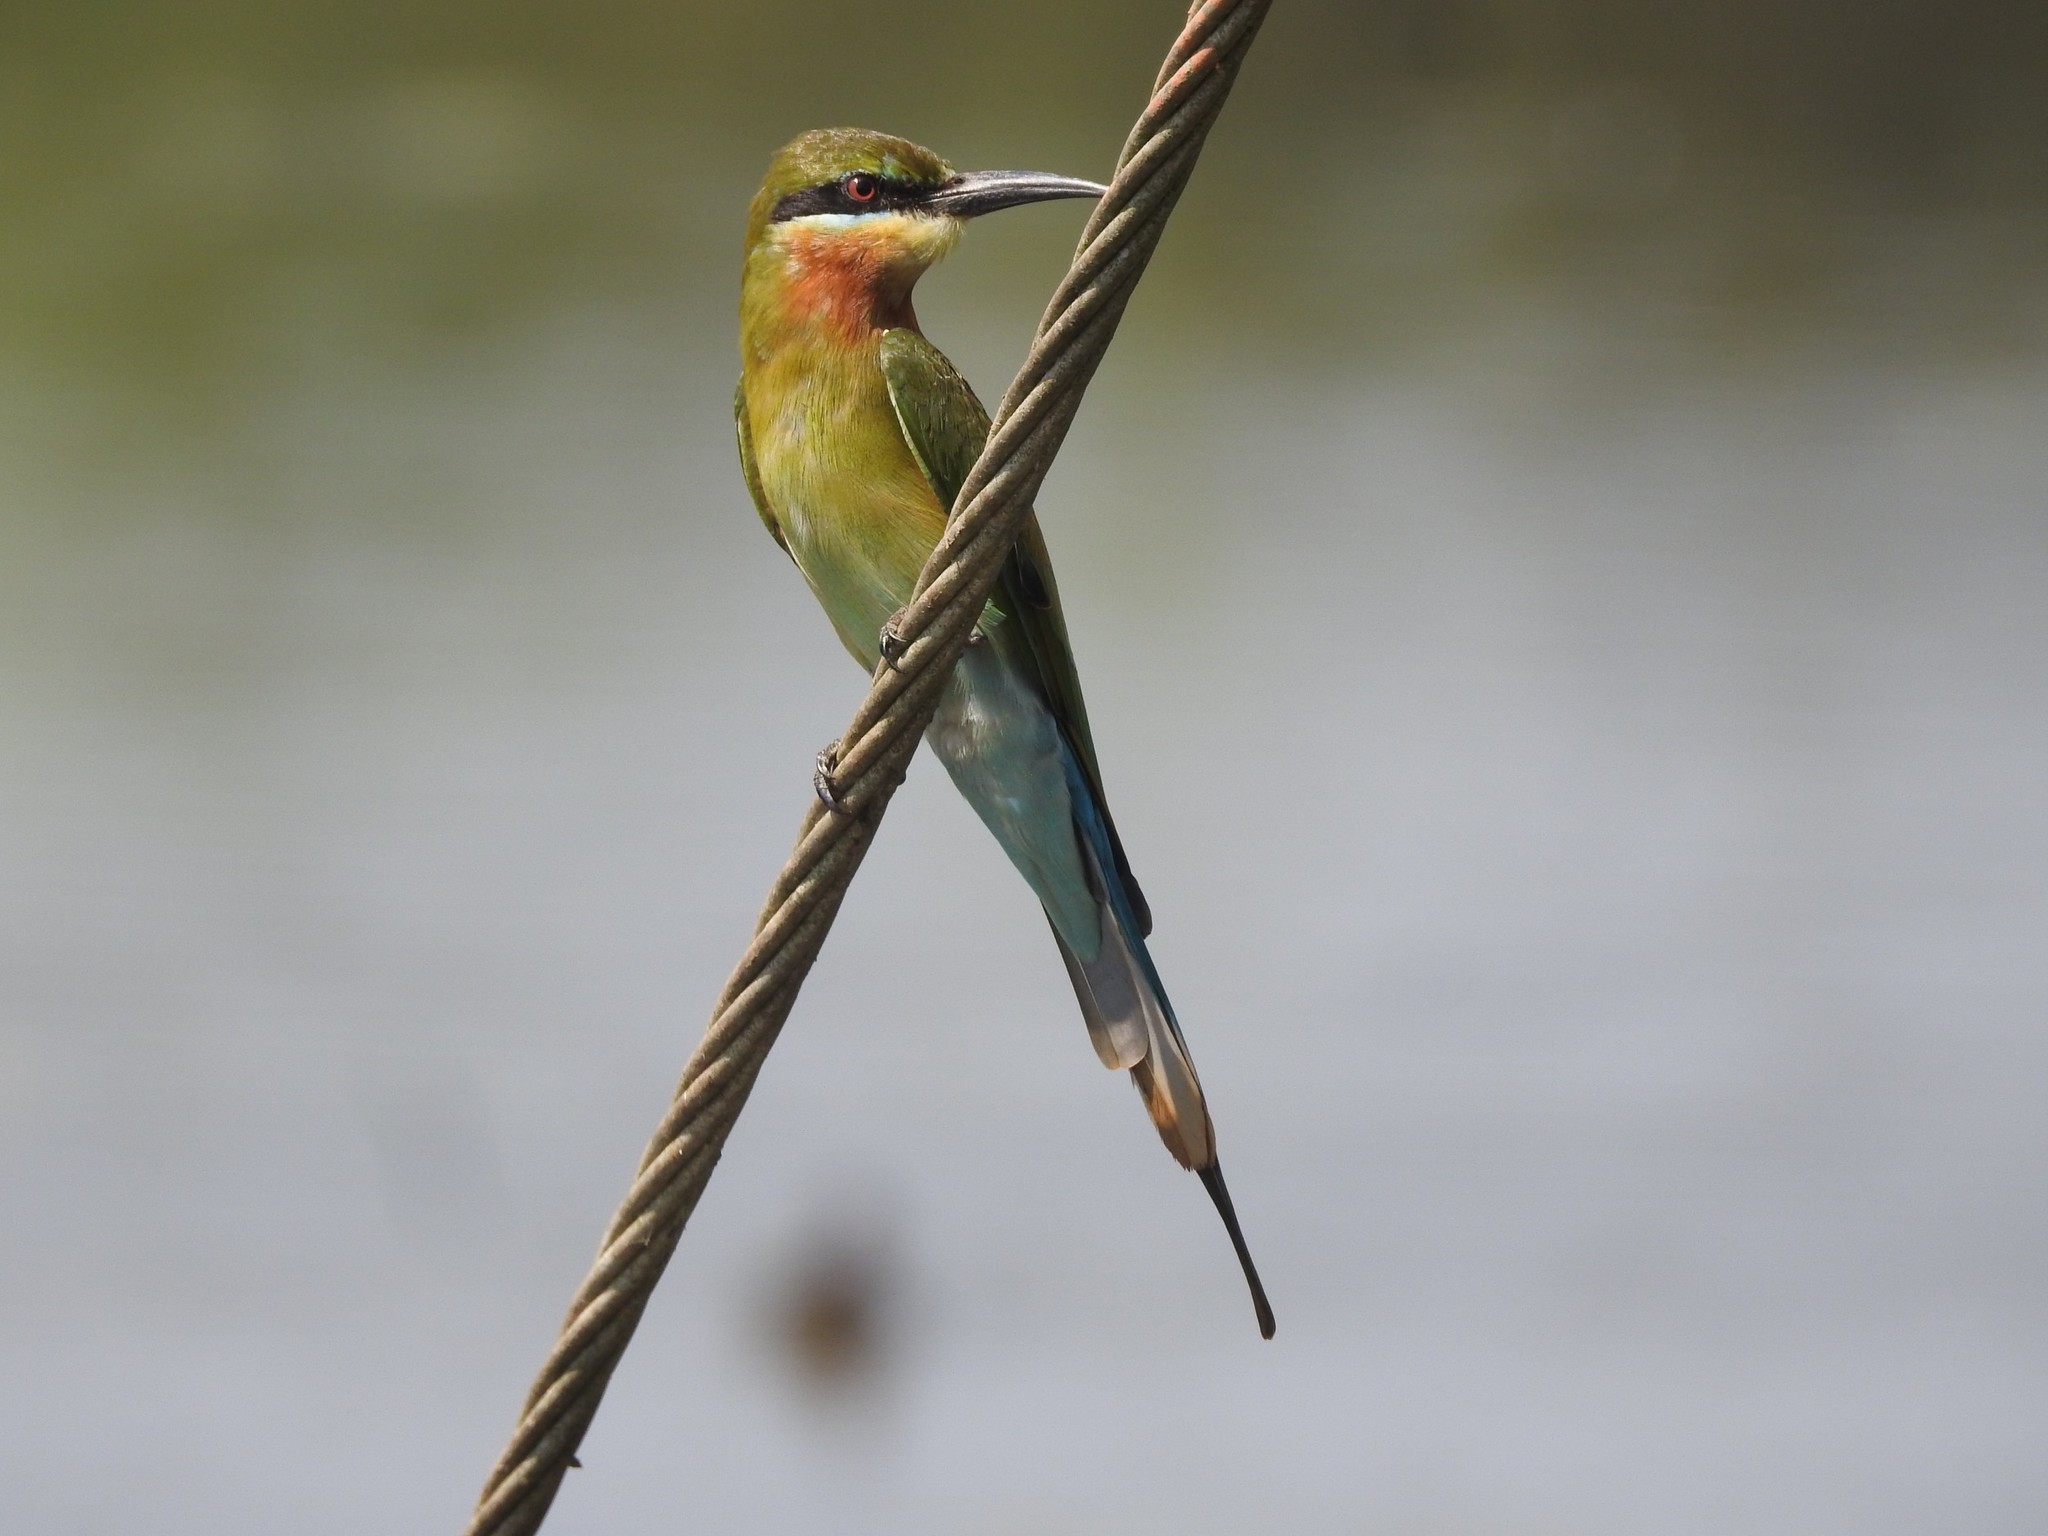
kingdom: Animalia
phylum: Chordata
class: Aves
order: Coraciiformes
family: Meropidae
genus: Merops
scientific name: Merops philippinus
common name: Blue-tailed bee-eater
